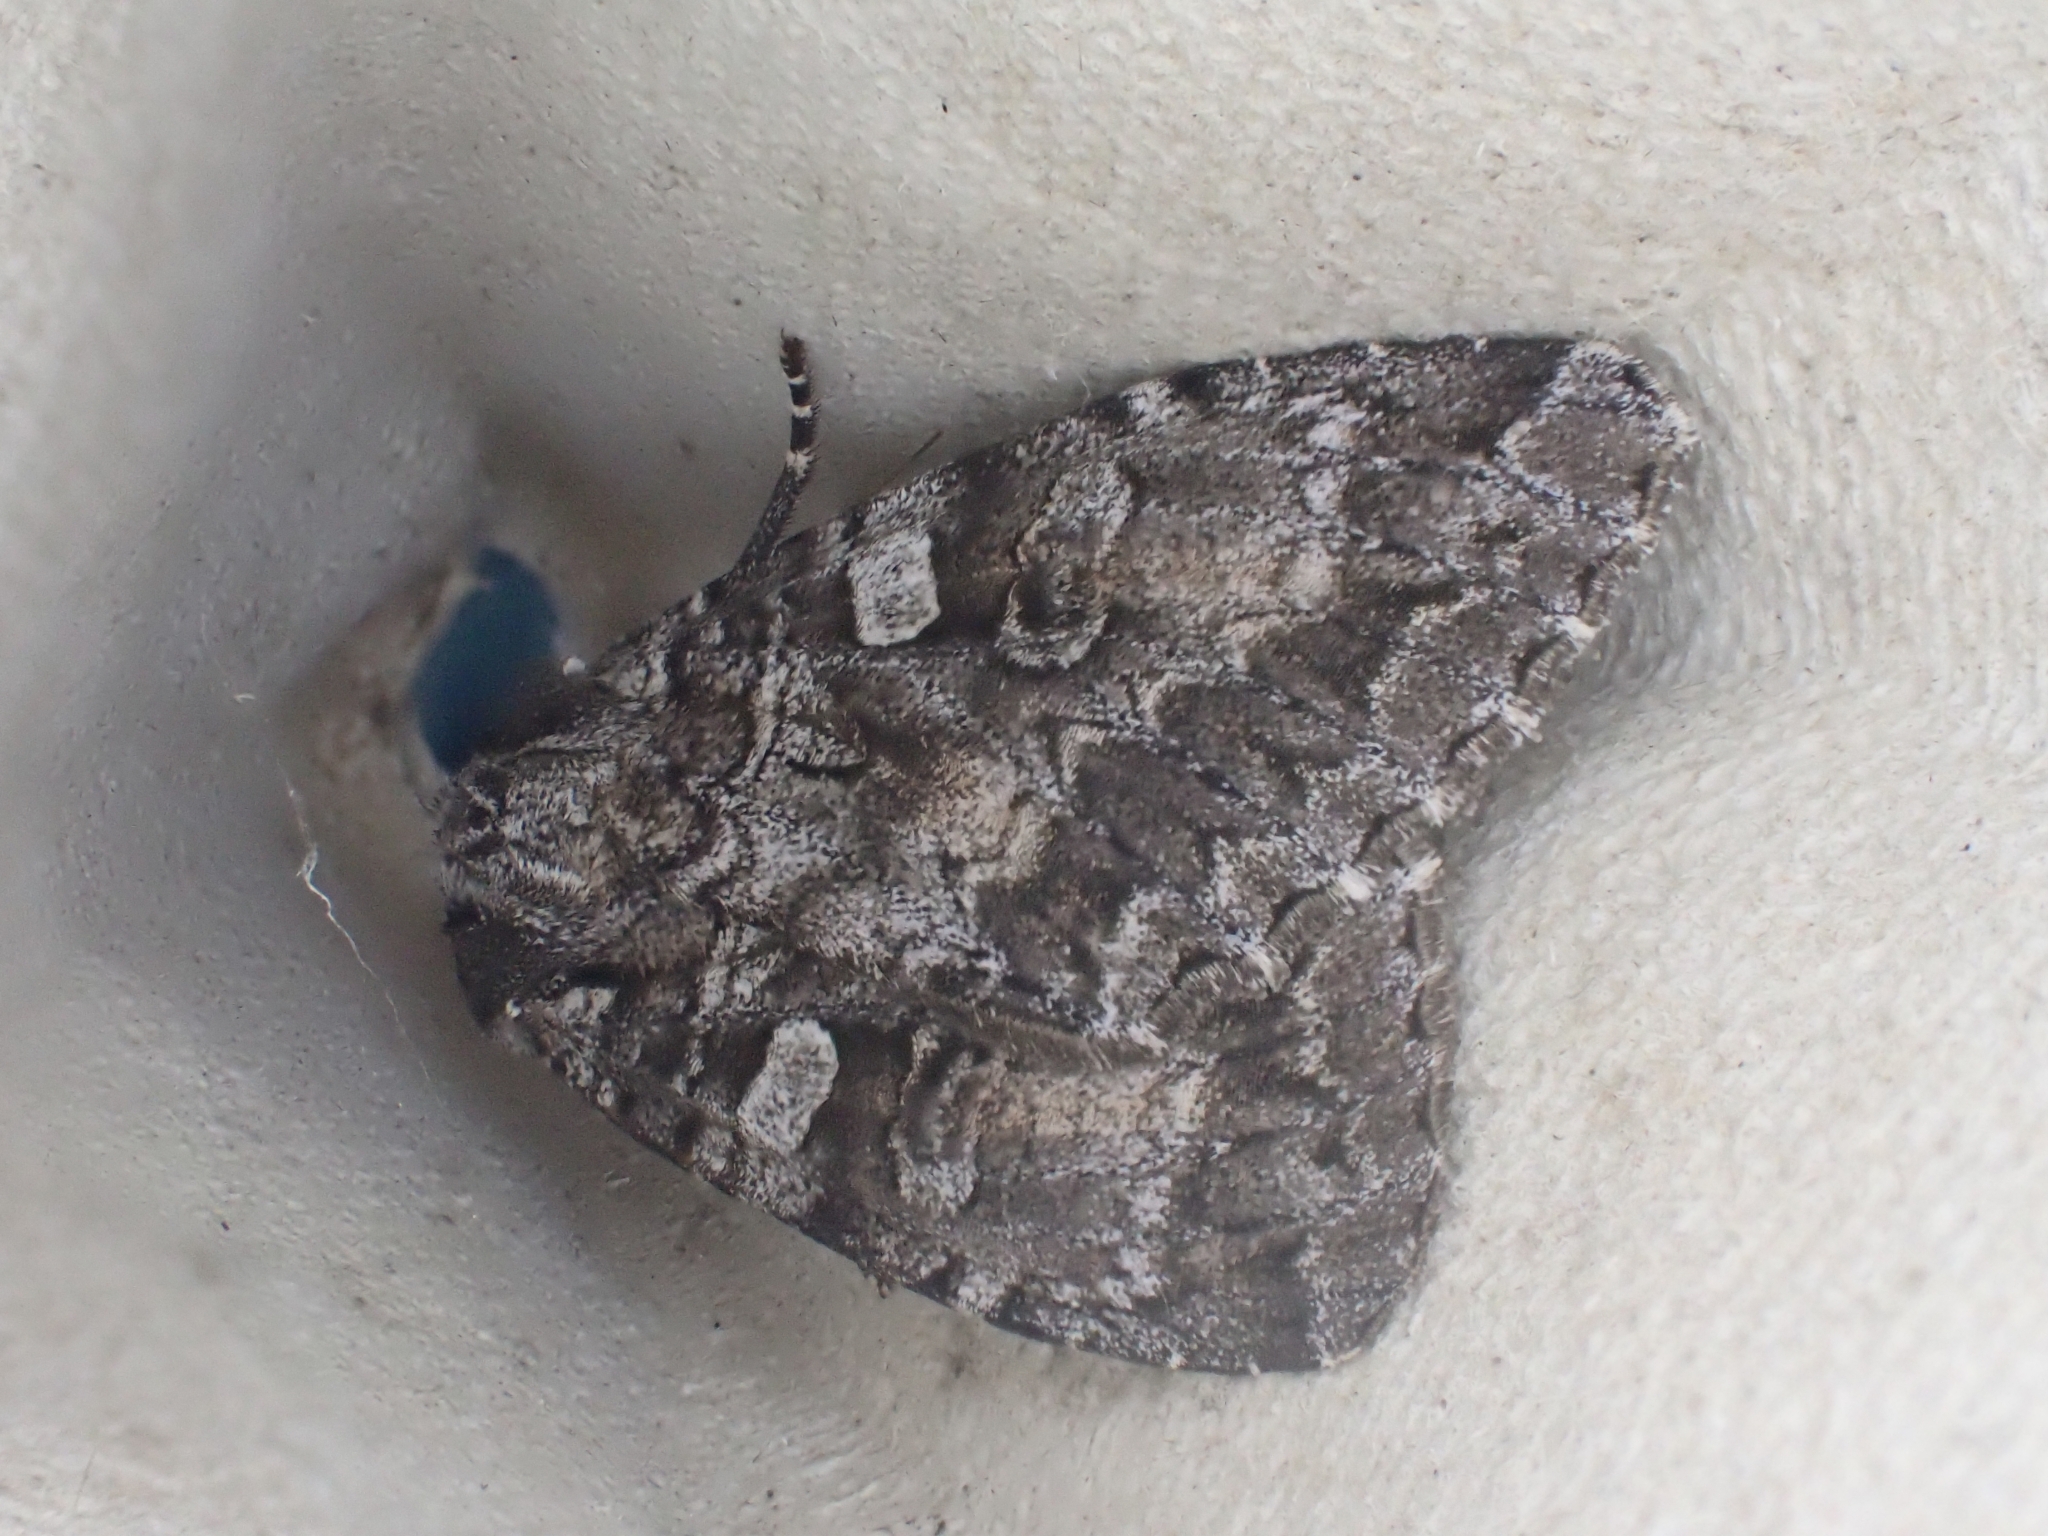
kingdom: Animalia
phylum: Arthropoda
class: Insecta
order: Lepidoptera
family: Noctuidae
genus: Eurois
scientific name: Eurois occulta
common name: Great brocade
